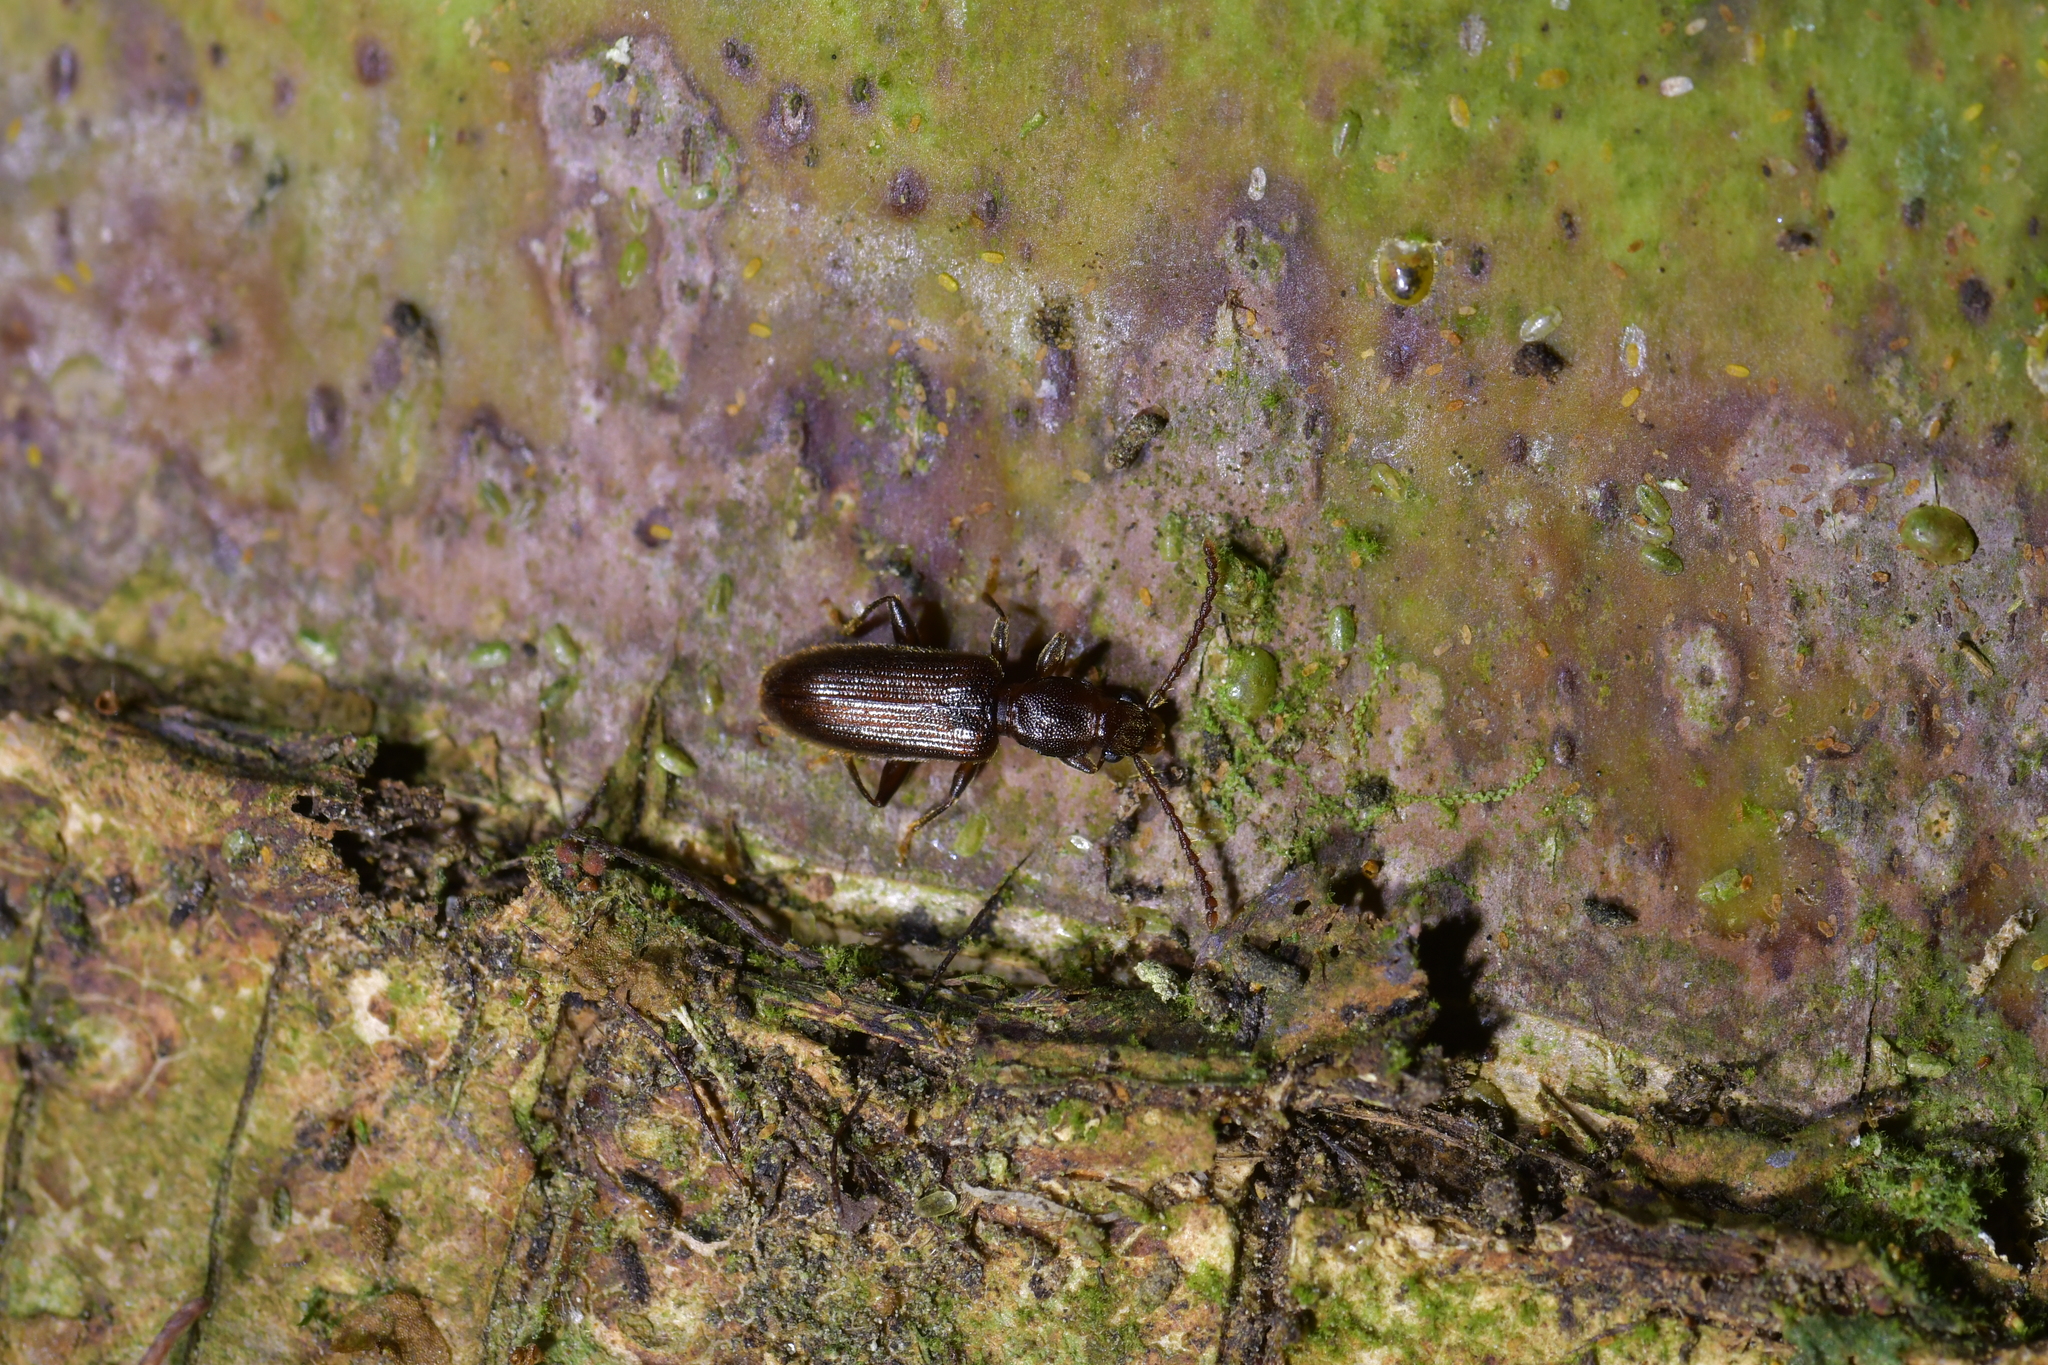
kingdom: Animalia
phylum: Arthropoda
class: Insecta
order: Coleoptera
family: Silvanidae
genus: Cryptamorpha
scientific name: Cryptamorpha brevicornis
